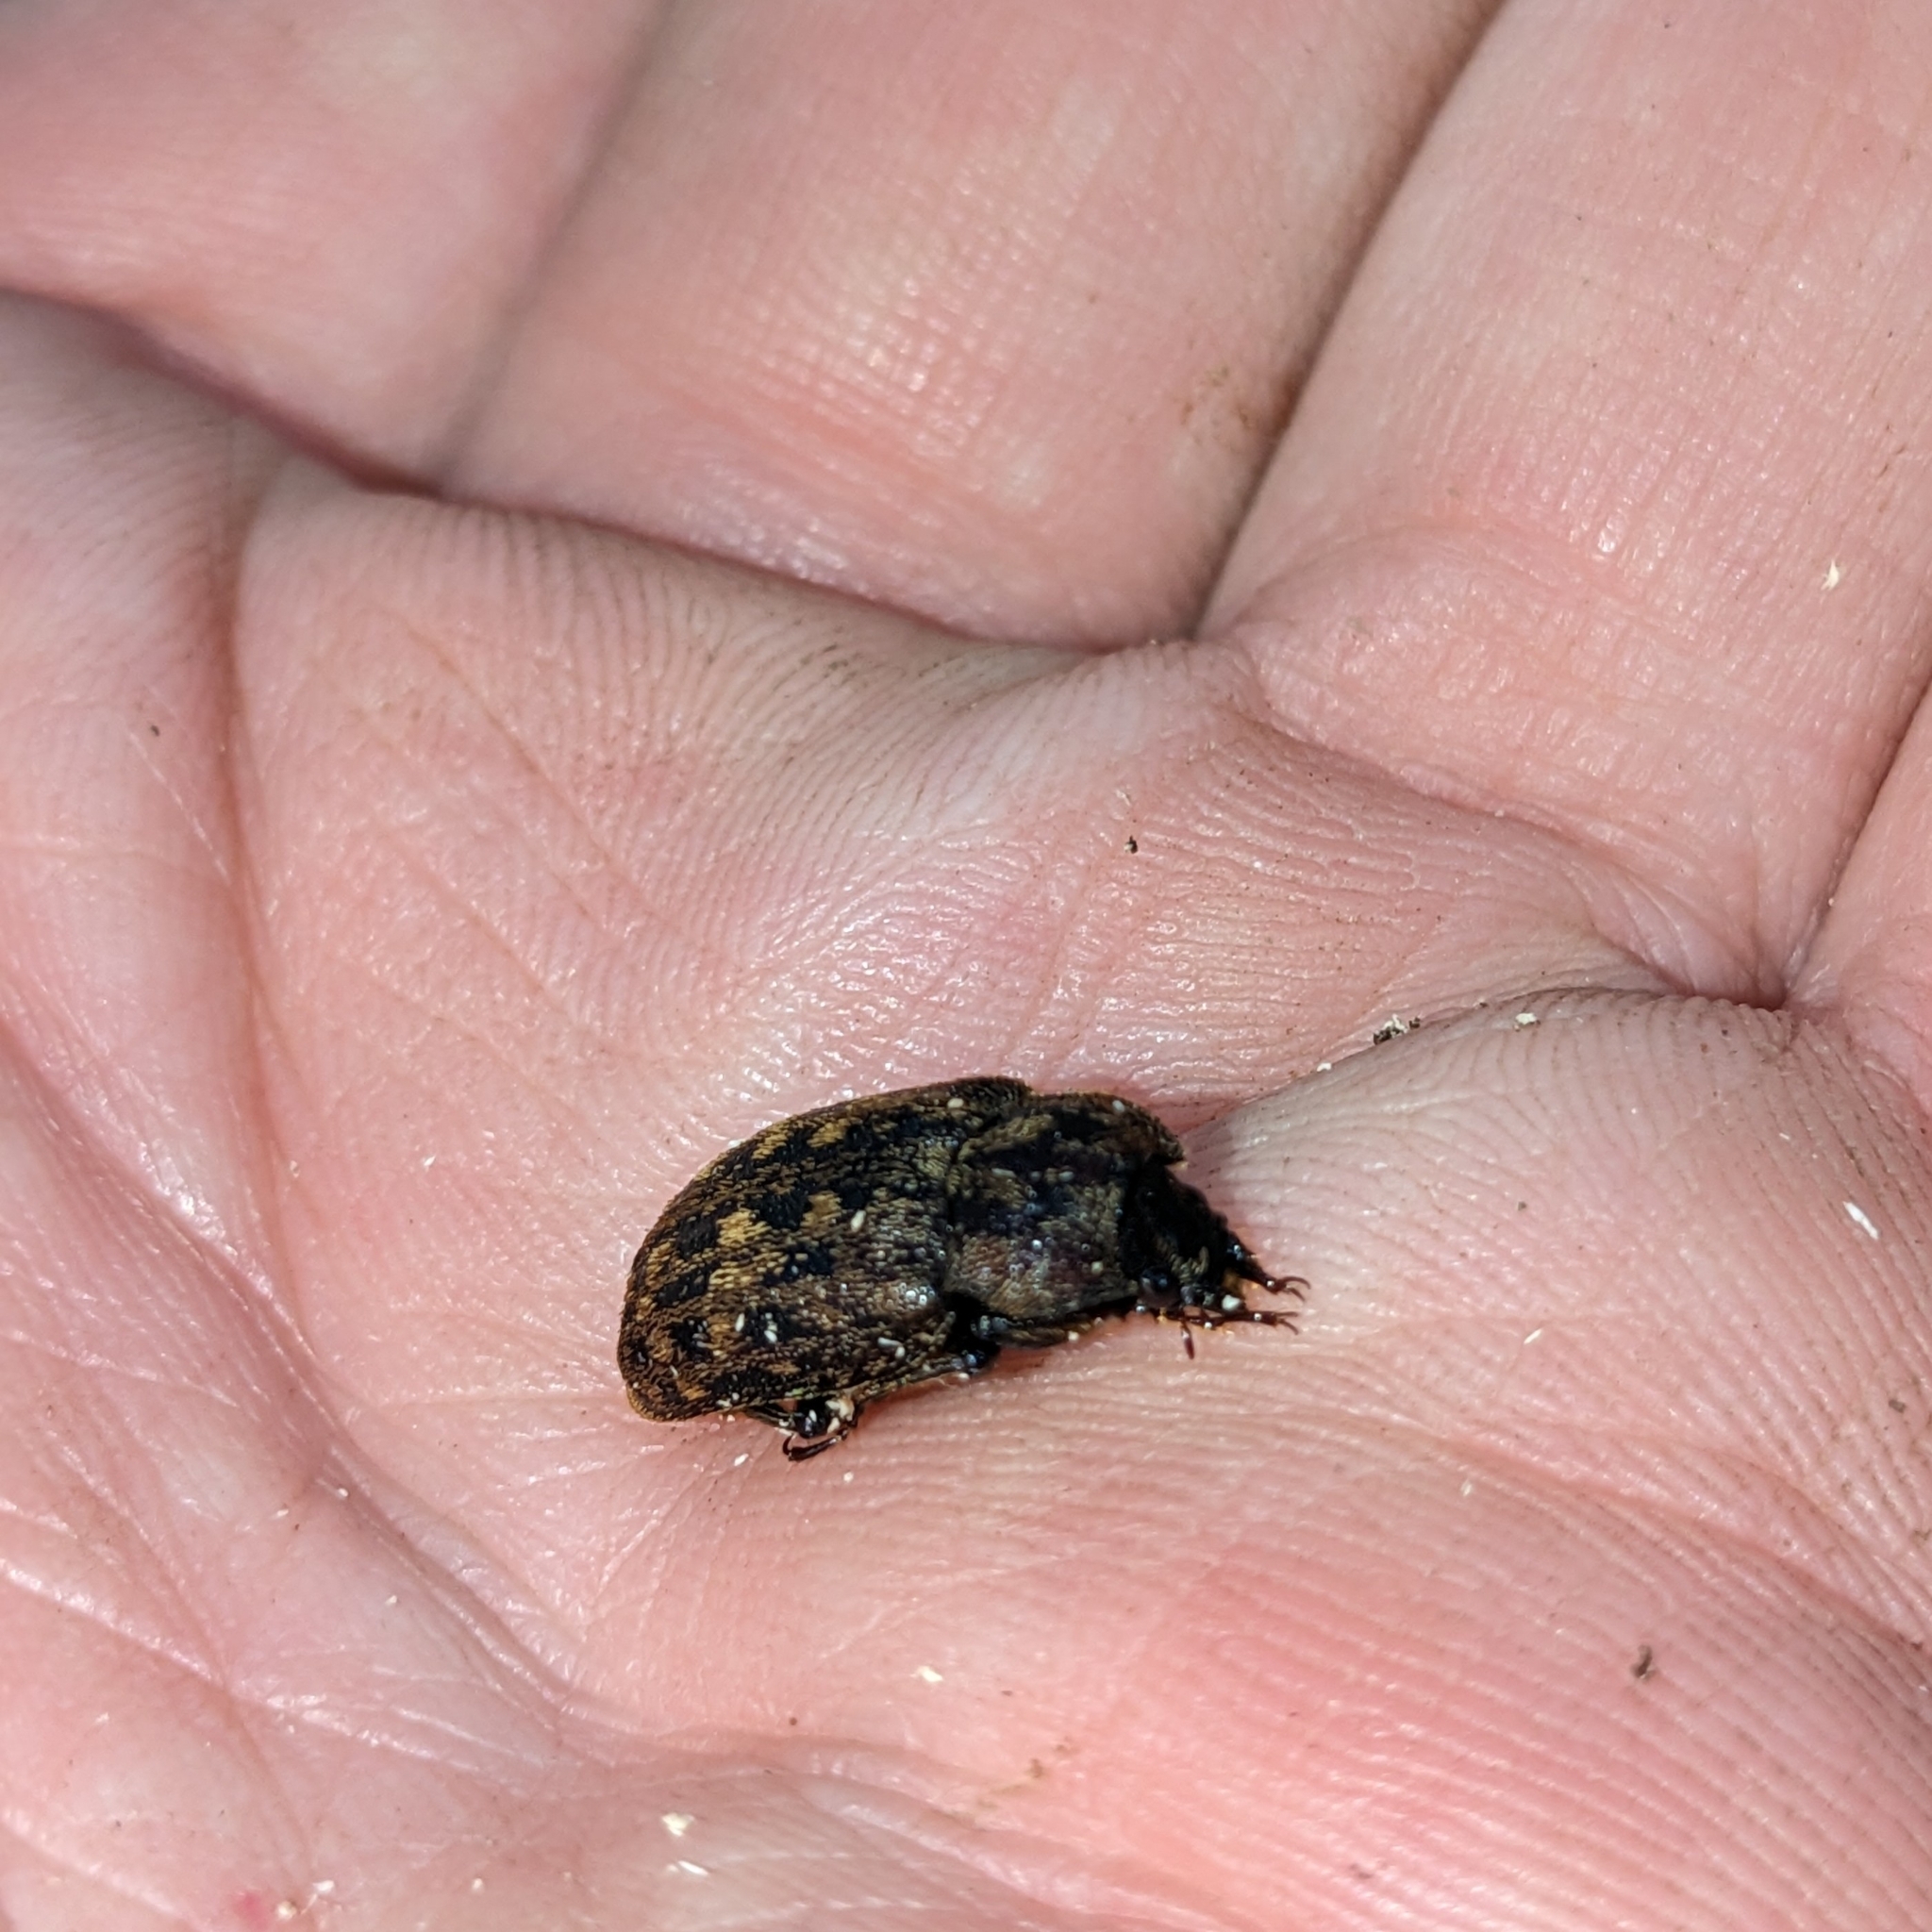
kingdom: Animalia
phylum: Arthropoda
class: Insecta
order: Coleoptera
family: Lucanidae
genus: Mitophyllus
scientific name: Mitophyllus parrianus
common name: Parry's stag beetle
